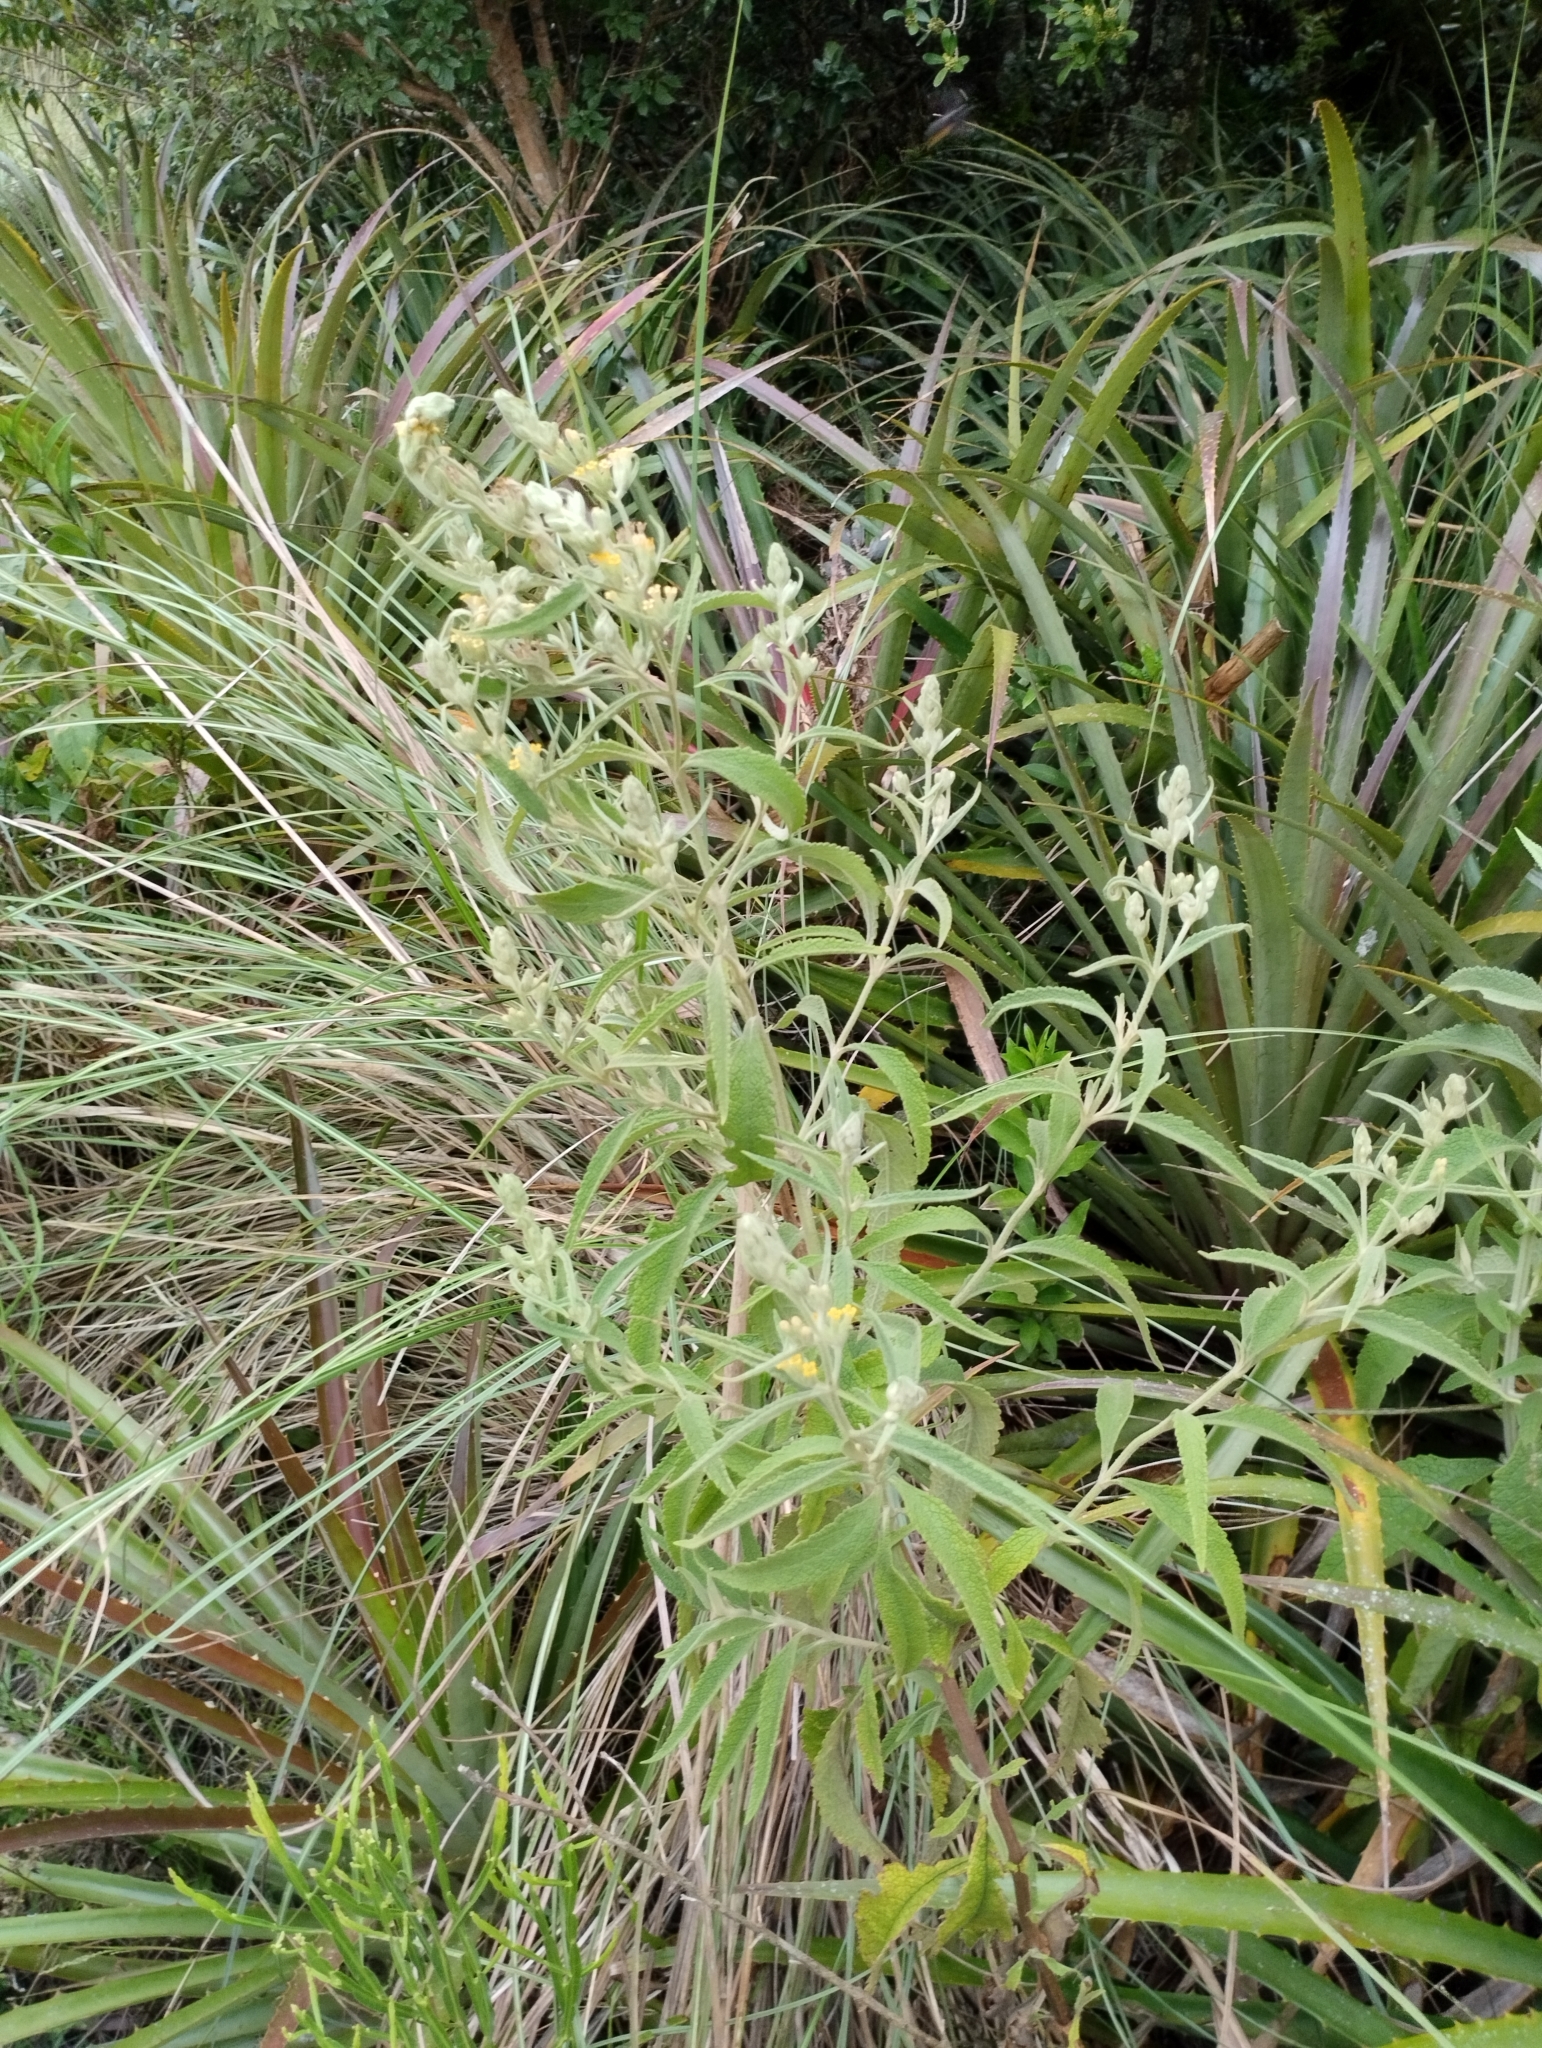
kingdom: Plantae
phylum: Tracheophyta
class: Magnoliopsida
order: Lamiales
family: Scrophulariaceae
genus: Buddleja
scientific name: Buddleja grandiflora
